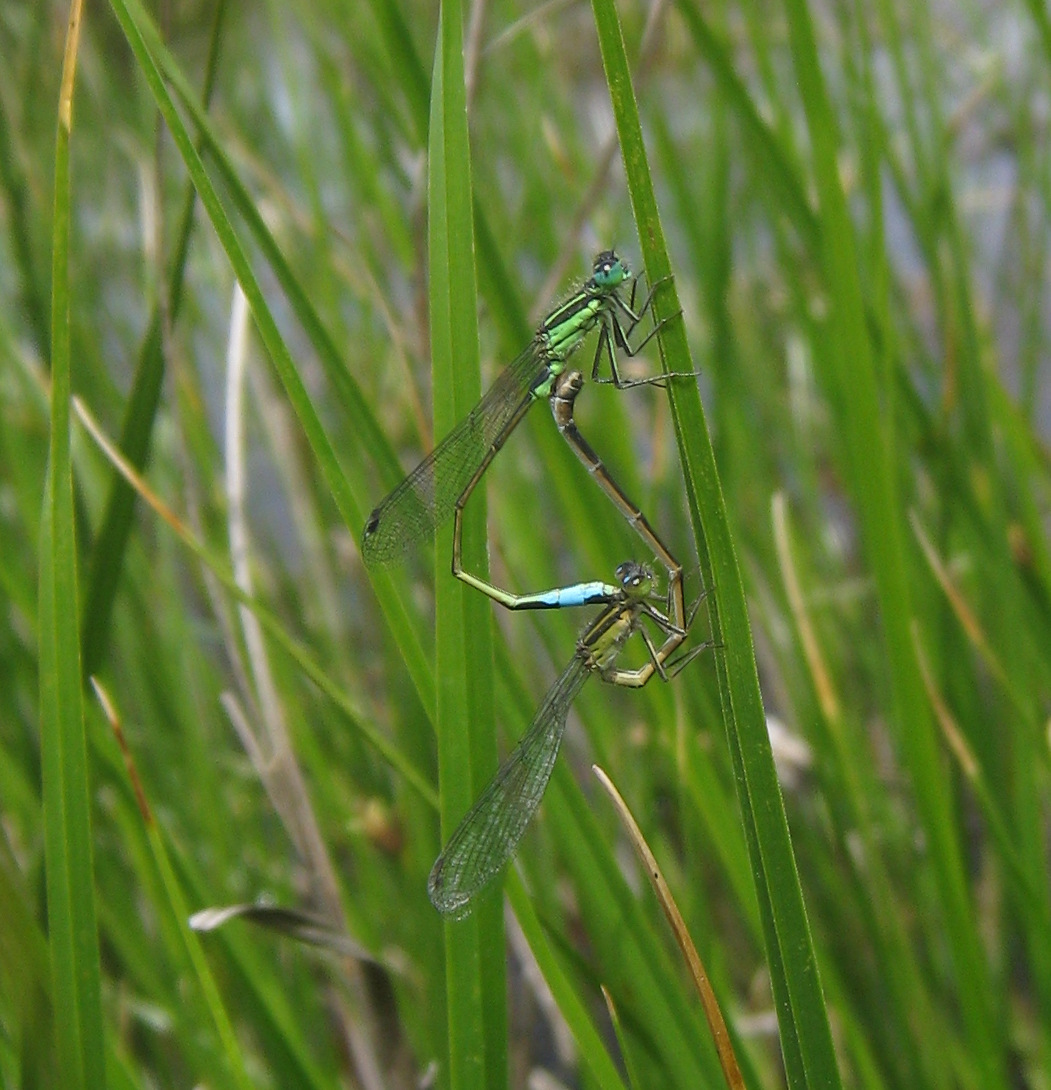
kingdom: Animalia
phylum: Arthropoda
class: Insecta
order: Odonata
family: Coenagrionidae
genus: Ischnura
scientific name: Ischnura genei
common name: Island bluetail
